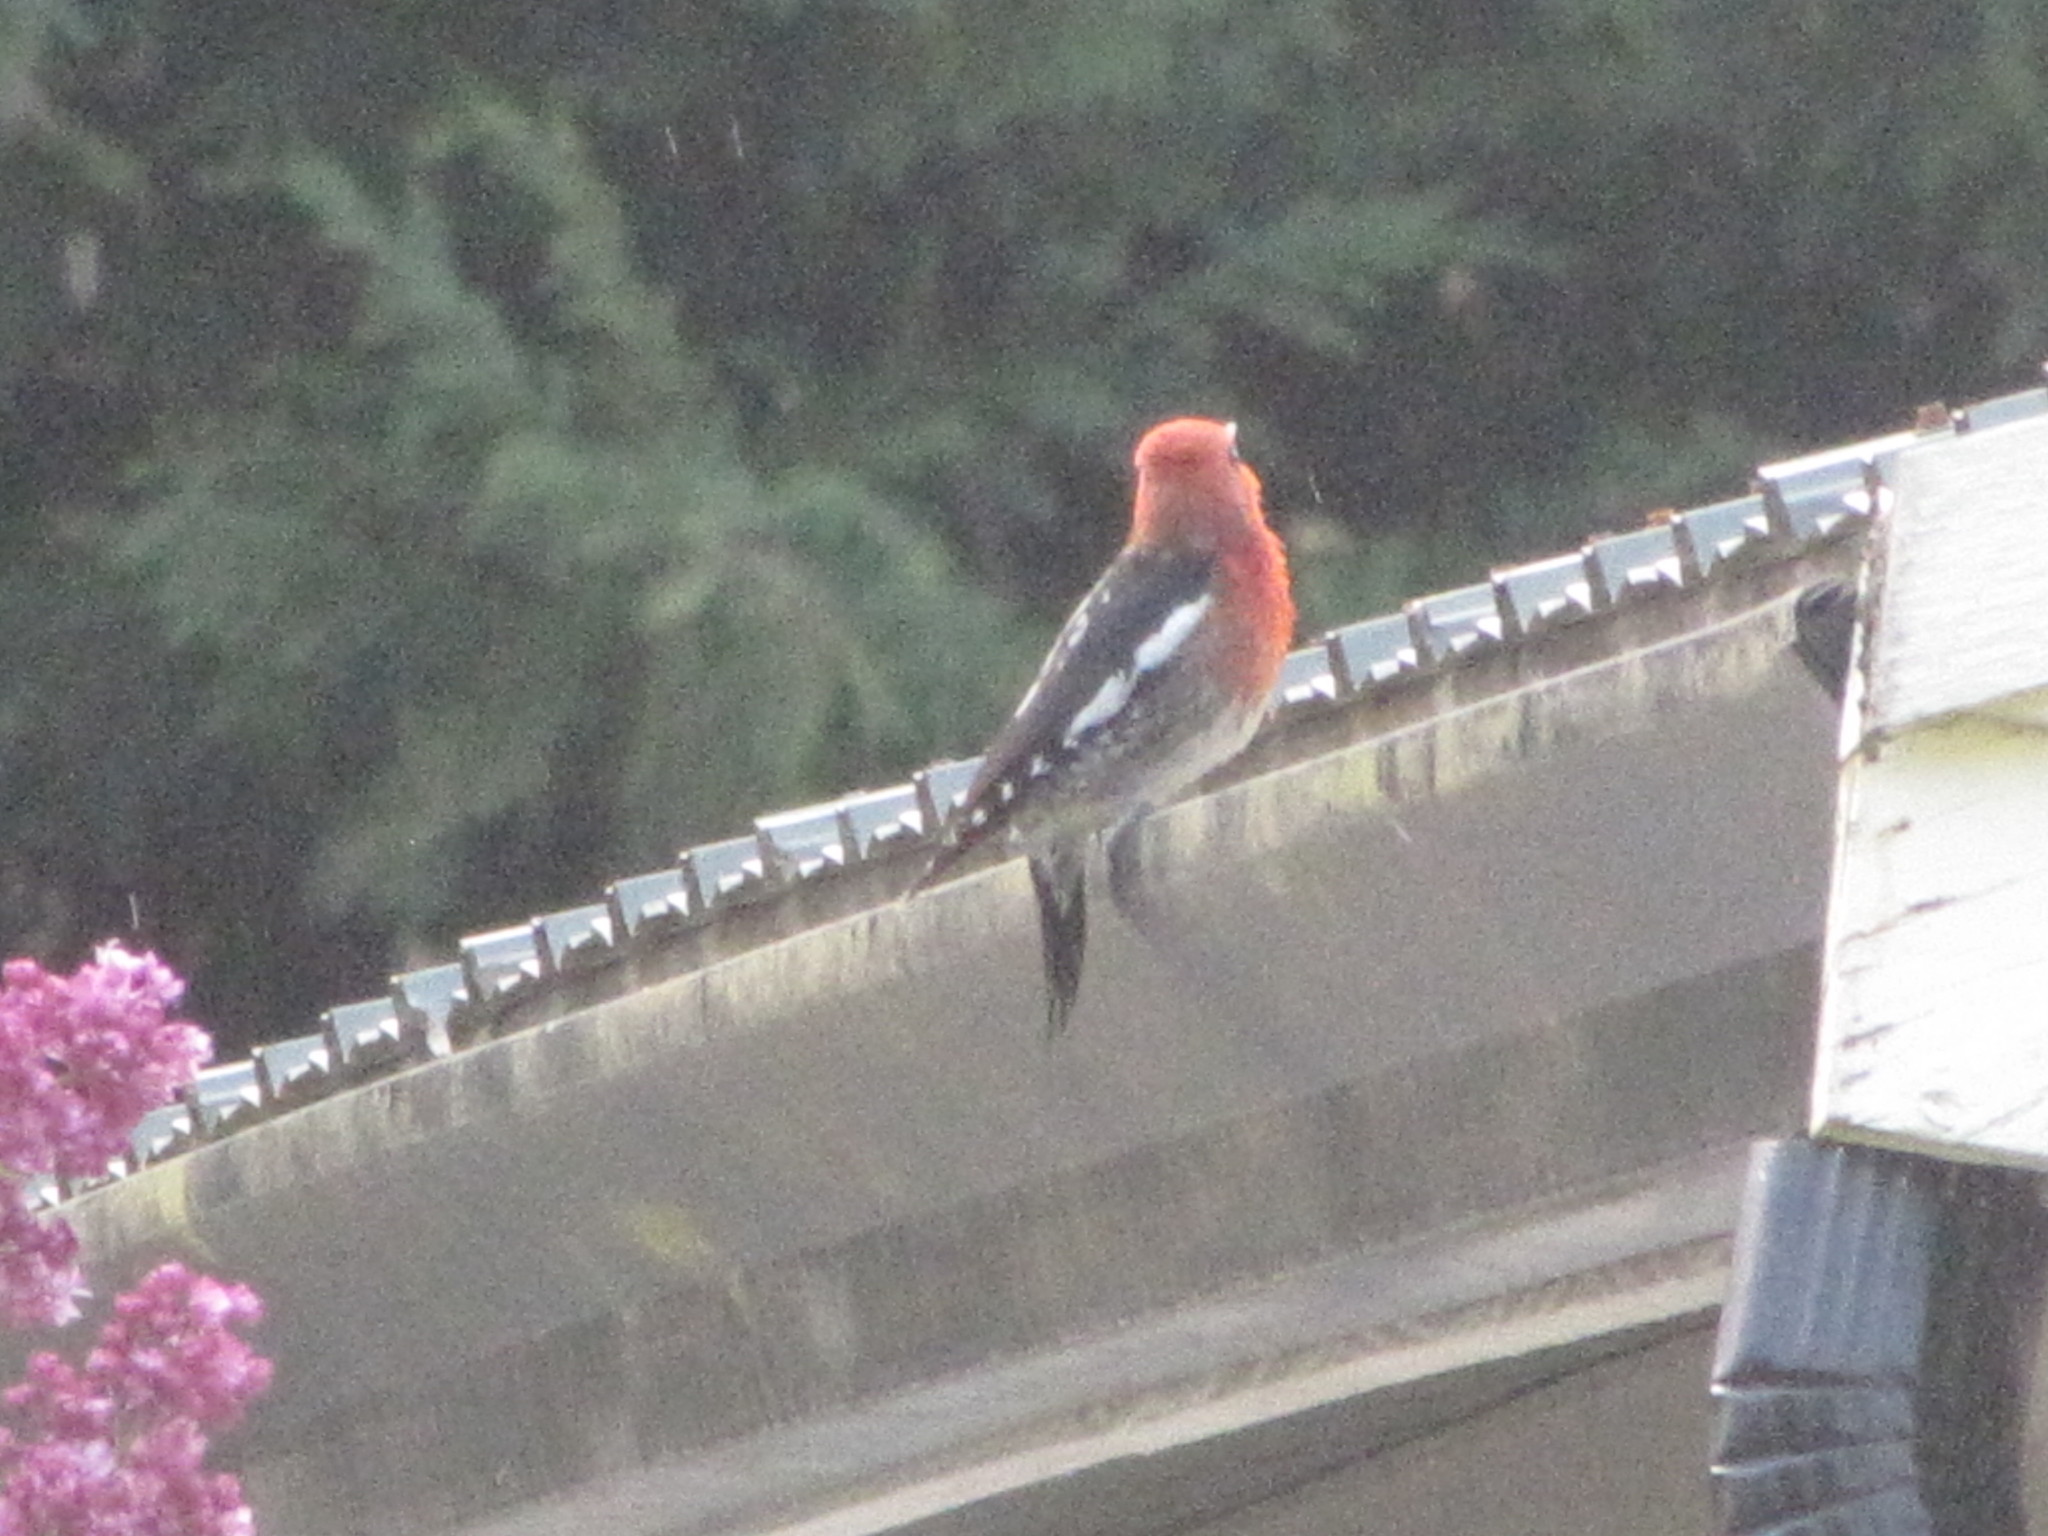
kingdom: Animalia
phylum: Chordata
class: Aves
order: Piciformes
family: Picidae
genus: Sphyrapicus
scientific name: Sphyrapicus ruber
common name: Red-breasted sapsucker
